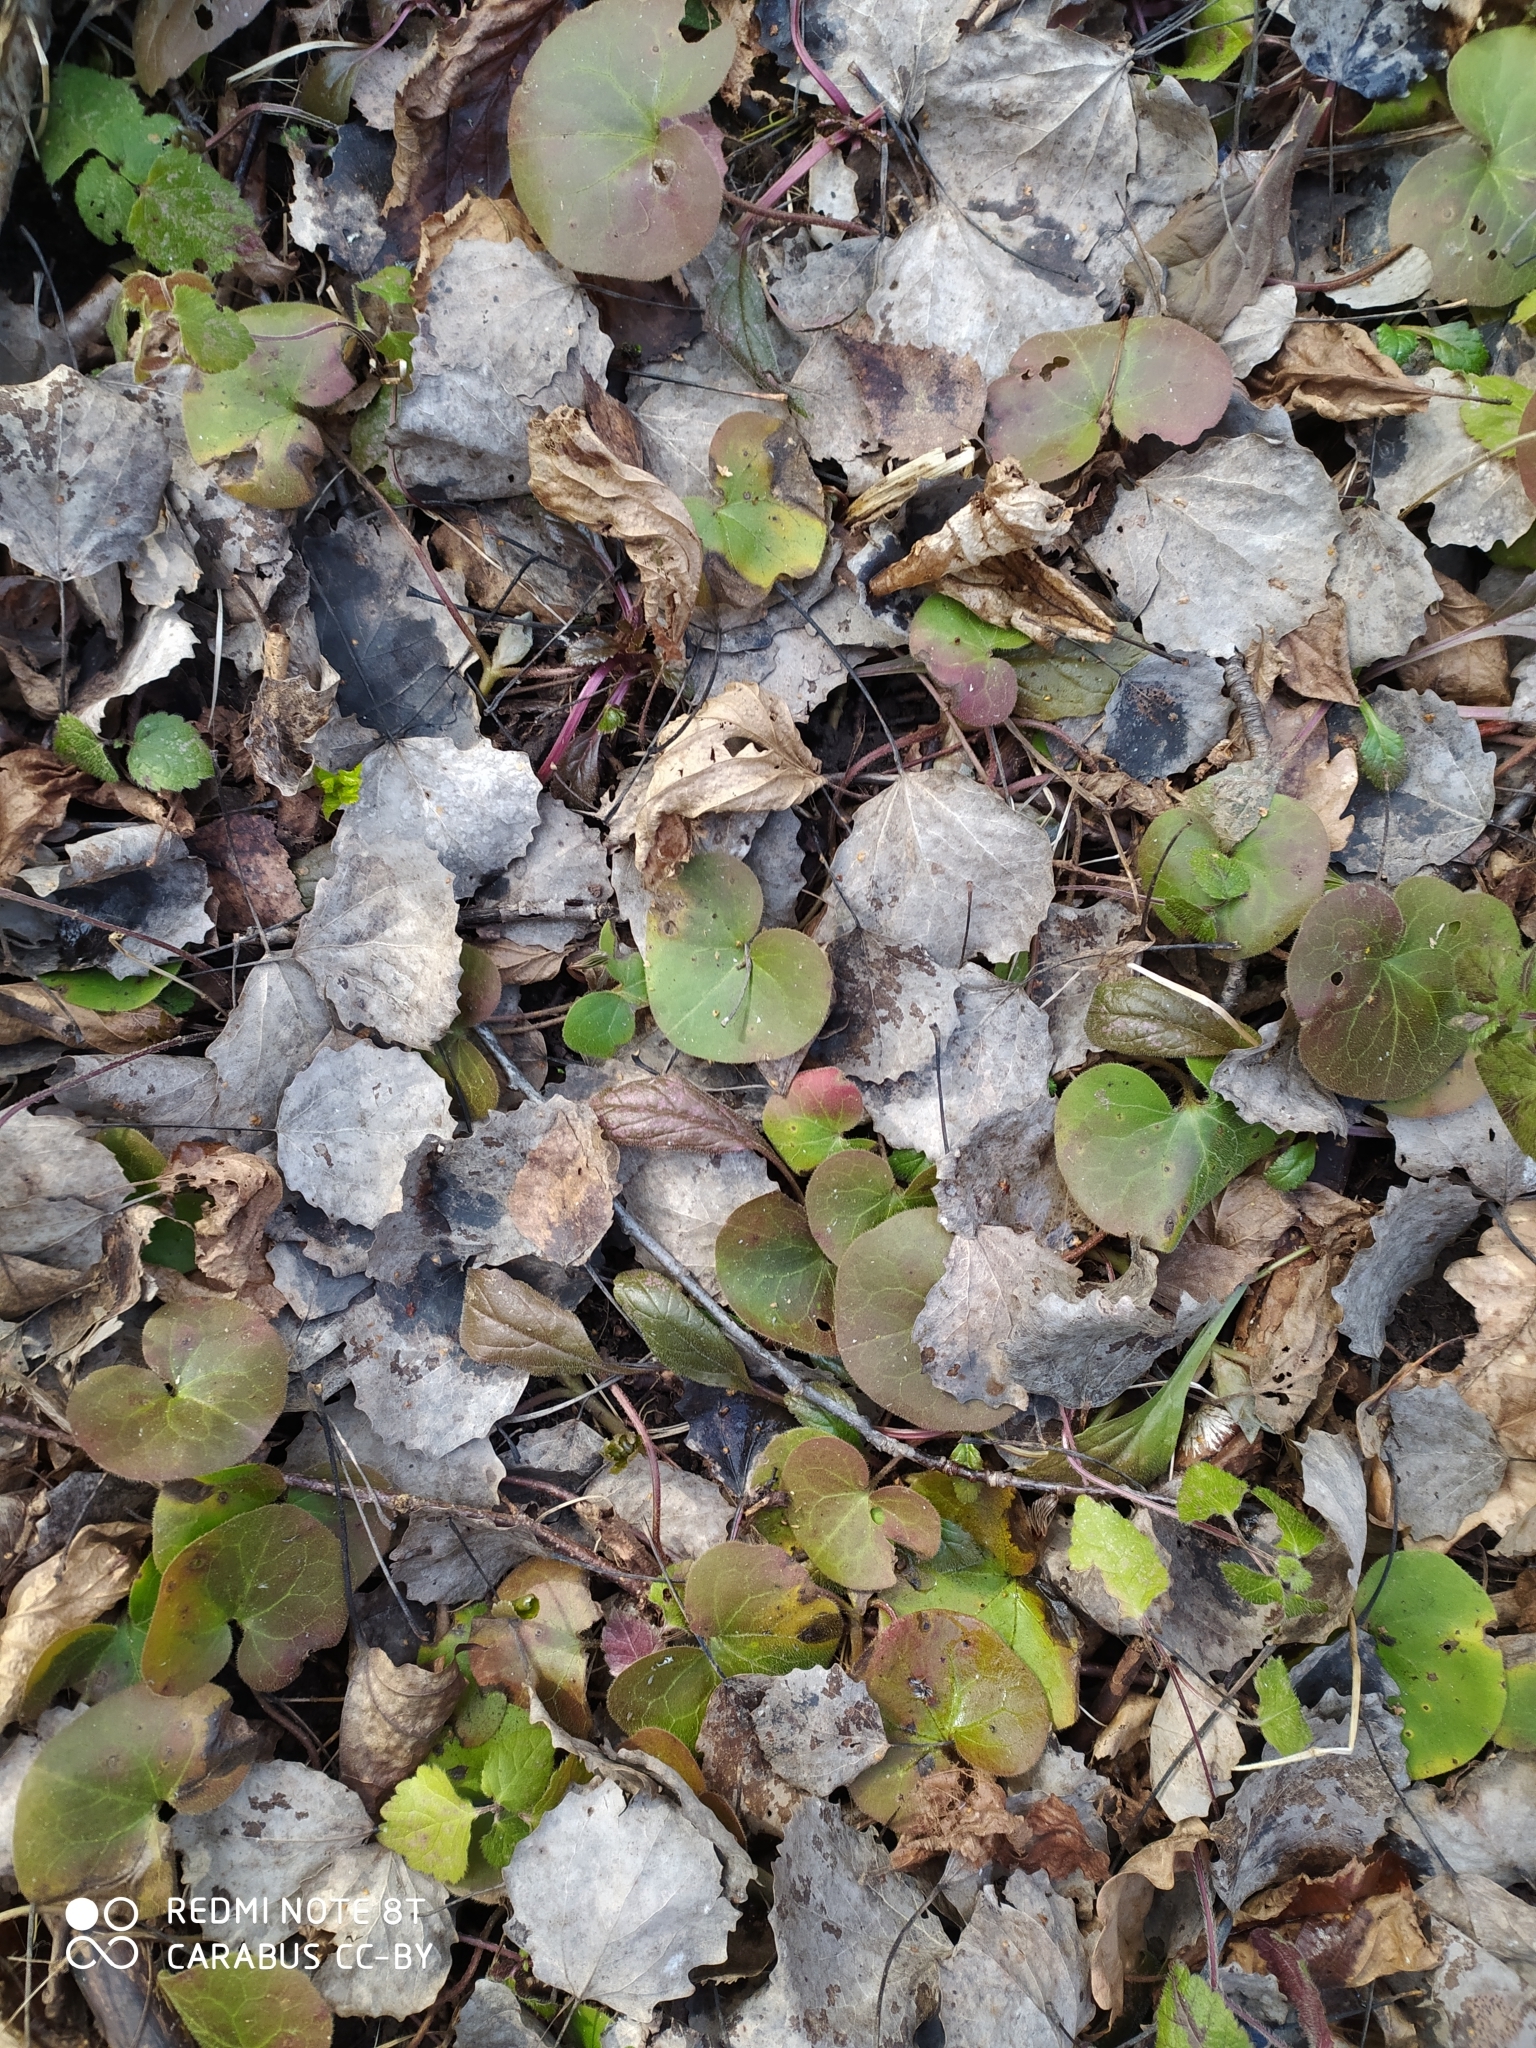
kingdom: Plantae
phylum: Tracheophyta
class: Magnoliopsida
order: Piperales
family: Aristolochiaceae
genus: Asarum
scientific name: Asarum europaeum
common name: Asarabacca
